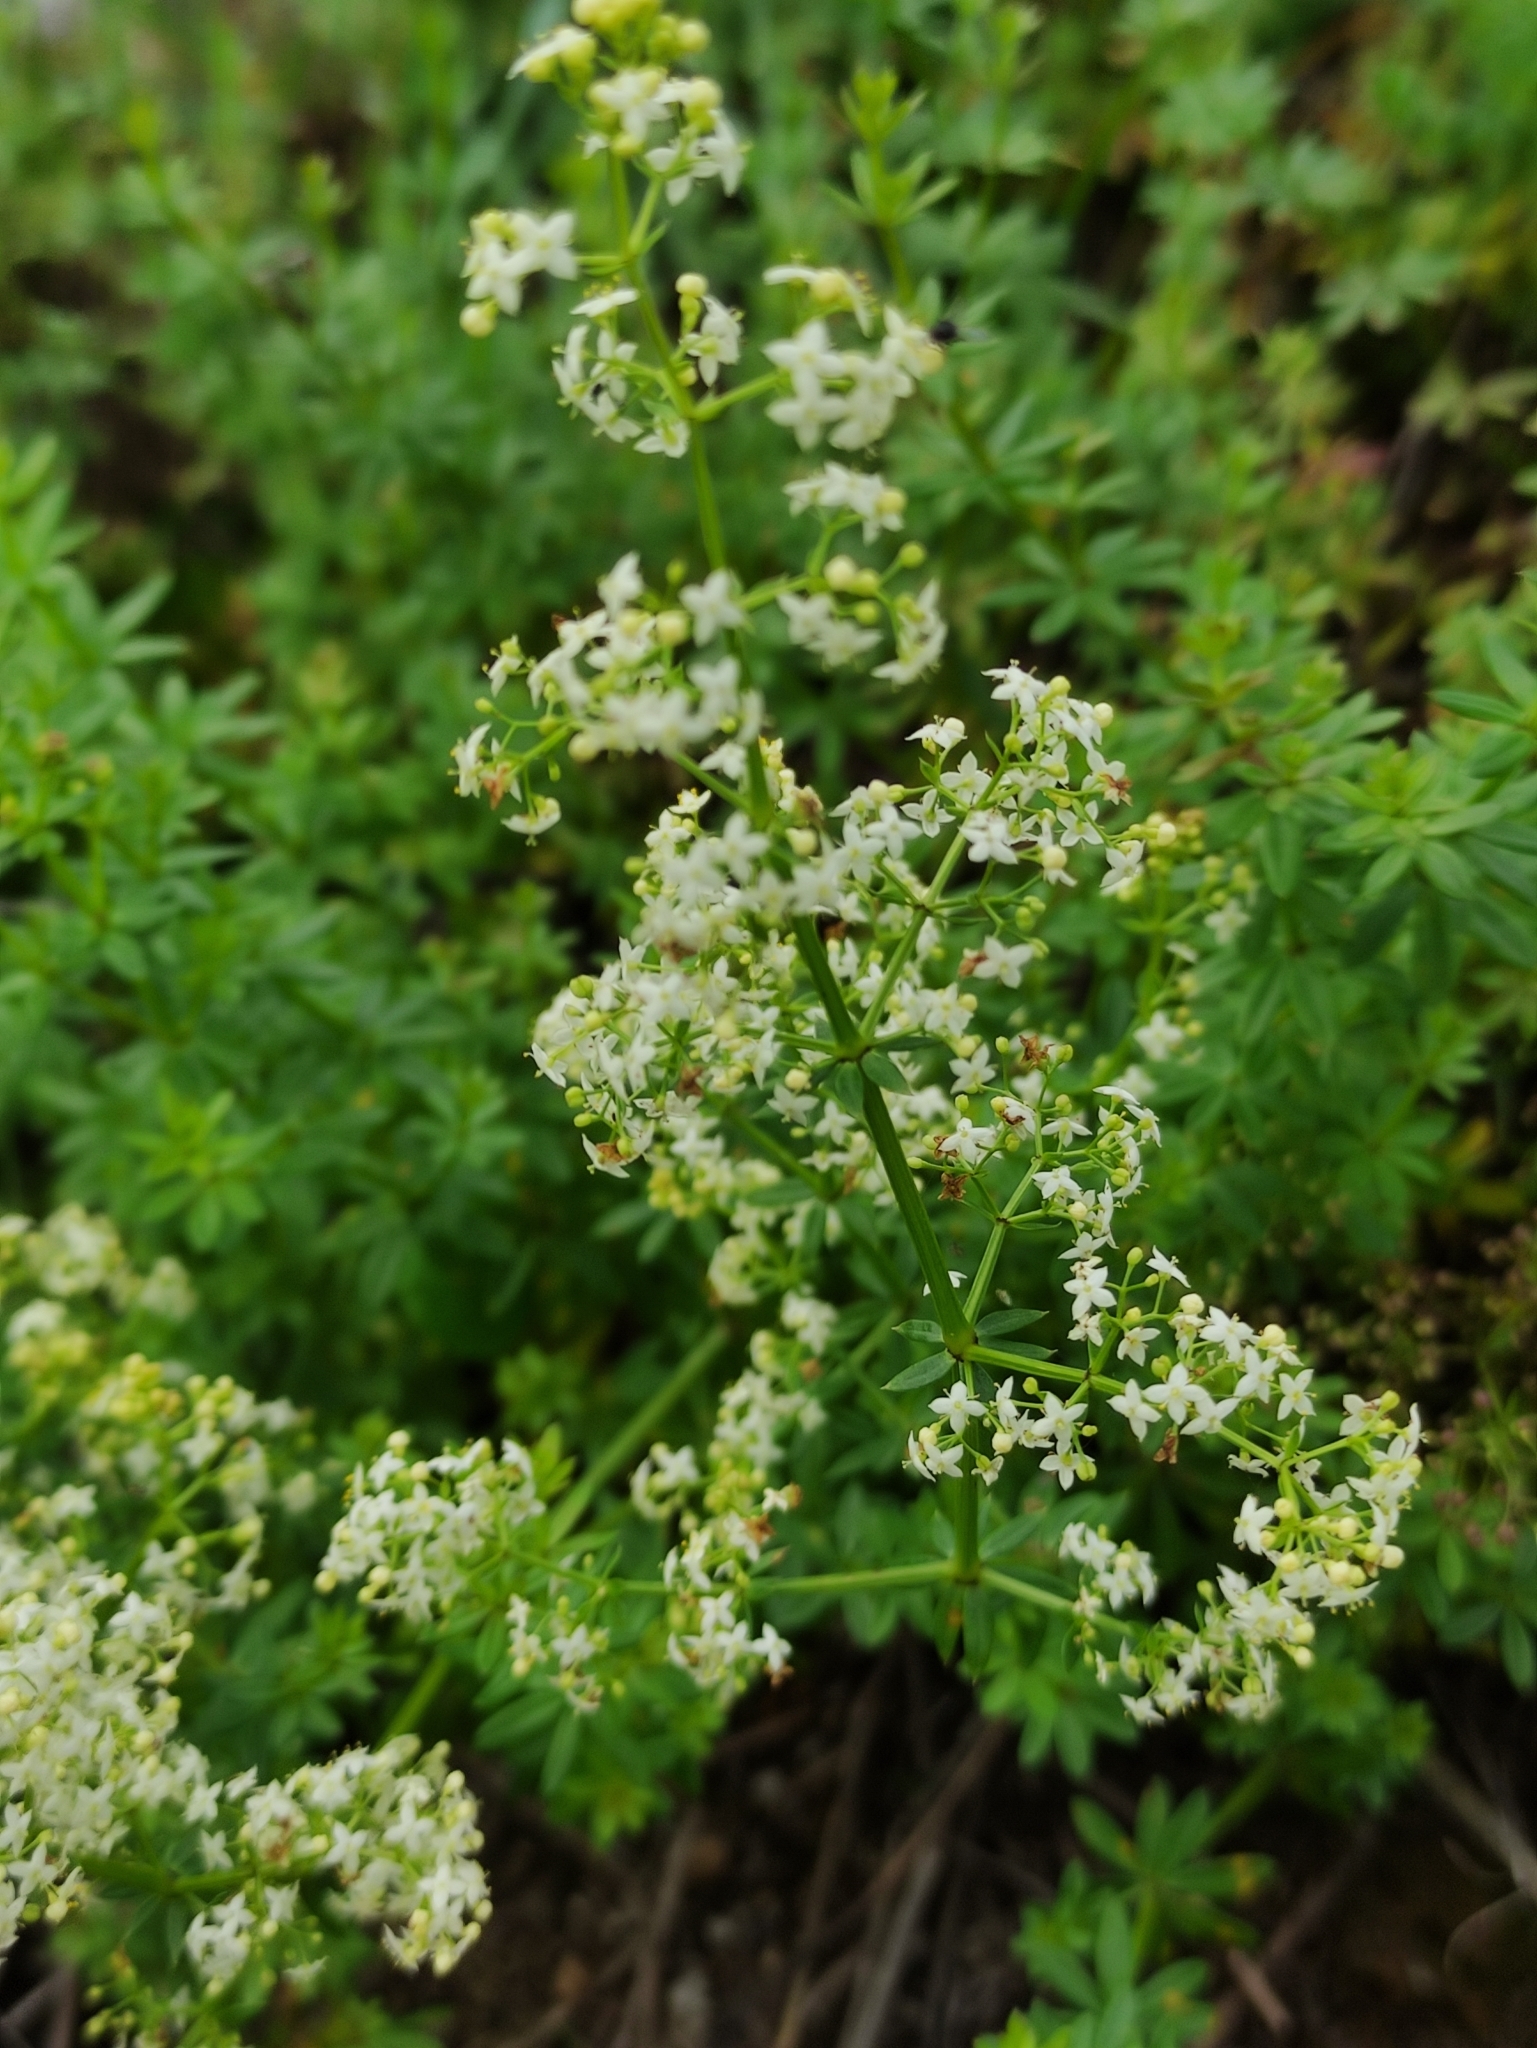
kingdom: Plantae
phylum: Tracheophyta
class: Magnoliopsida
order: Gentianales
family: Rubiaceae
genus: Galium
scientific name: Galium mollugo
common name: Hedge bedstraw
